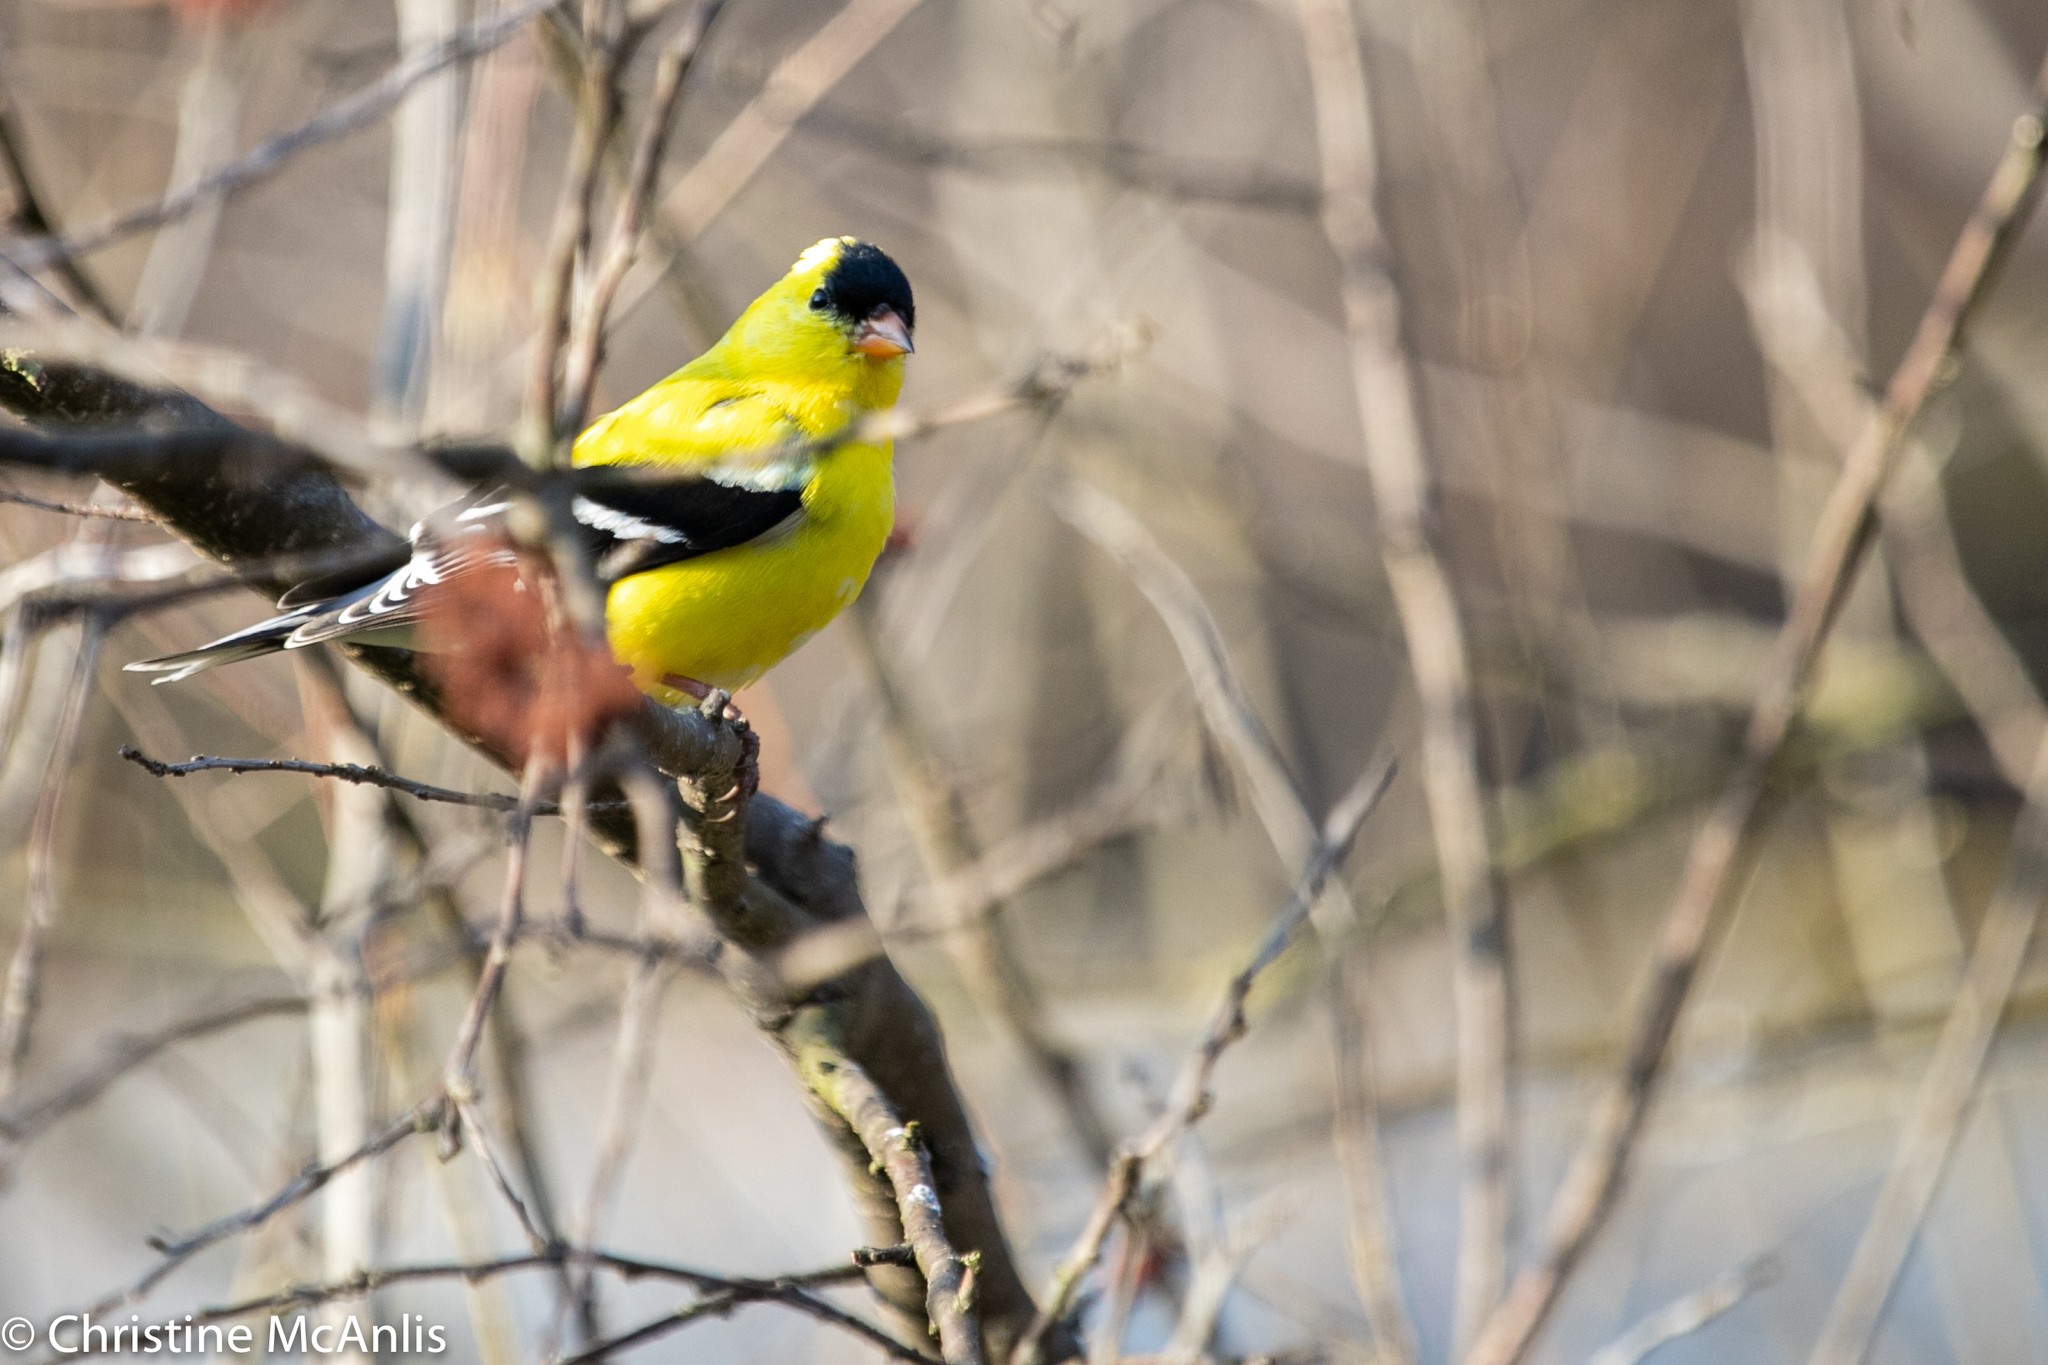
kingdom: Animalia
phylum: Chordata
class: Aves
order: Passeriformes
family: Fringillidae
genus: Spinus
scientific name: Spinus tristis
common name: American goldfinch
